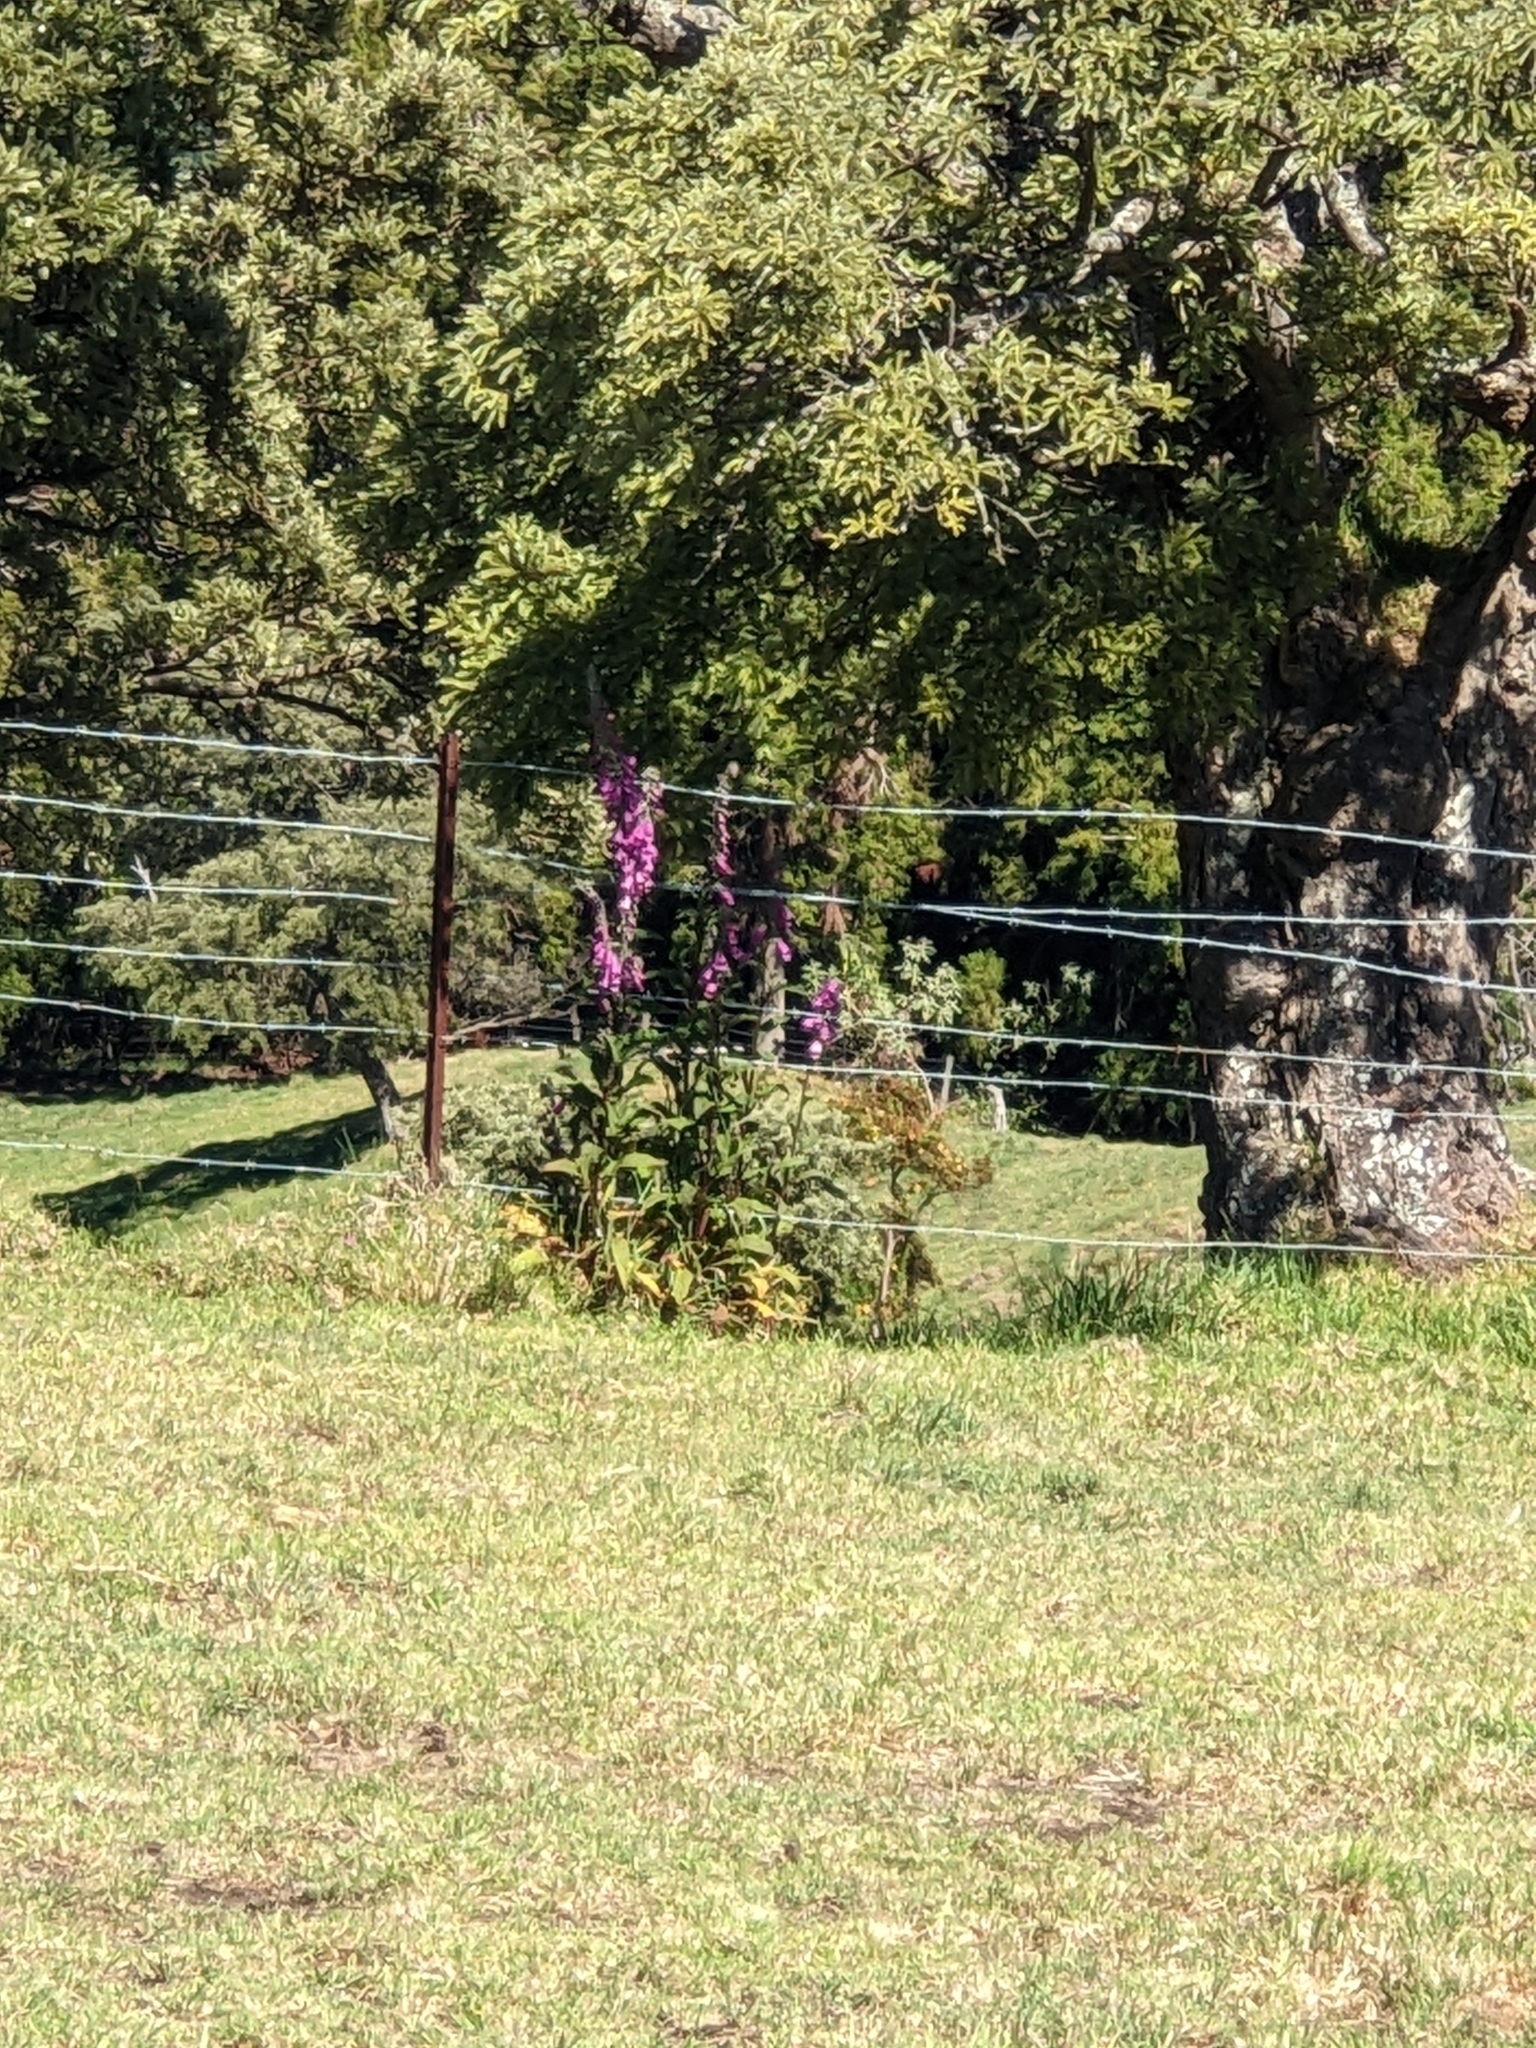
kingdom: Plantae
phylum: Tracheophyta
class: Magnoliopsida
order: Lamiales
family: Plantaginaceae
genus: Digitalis
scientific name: Digitalis purpurea
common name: Foxglove
